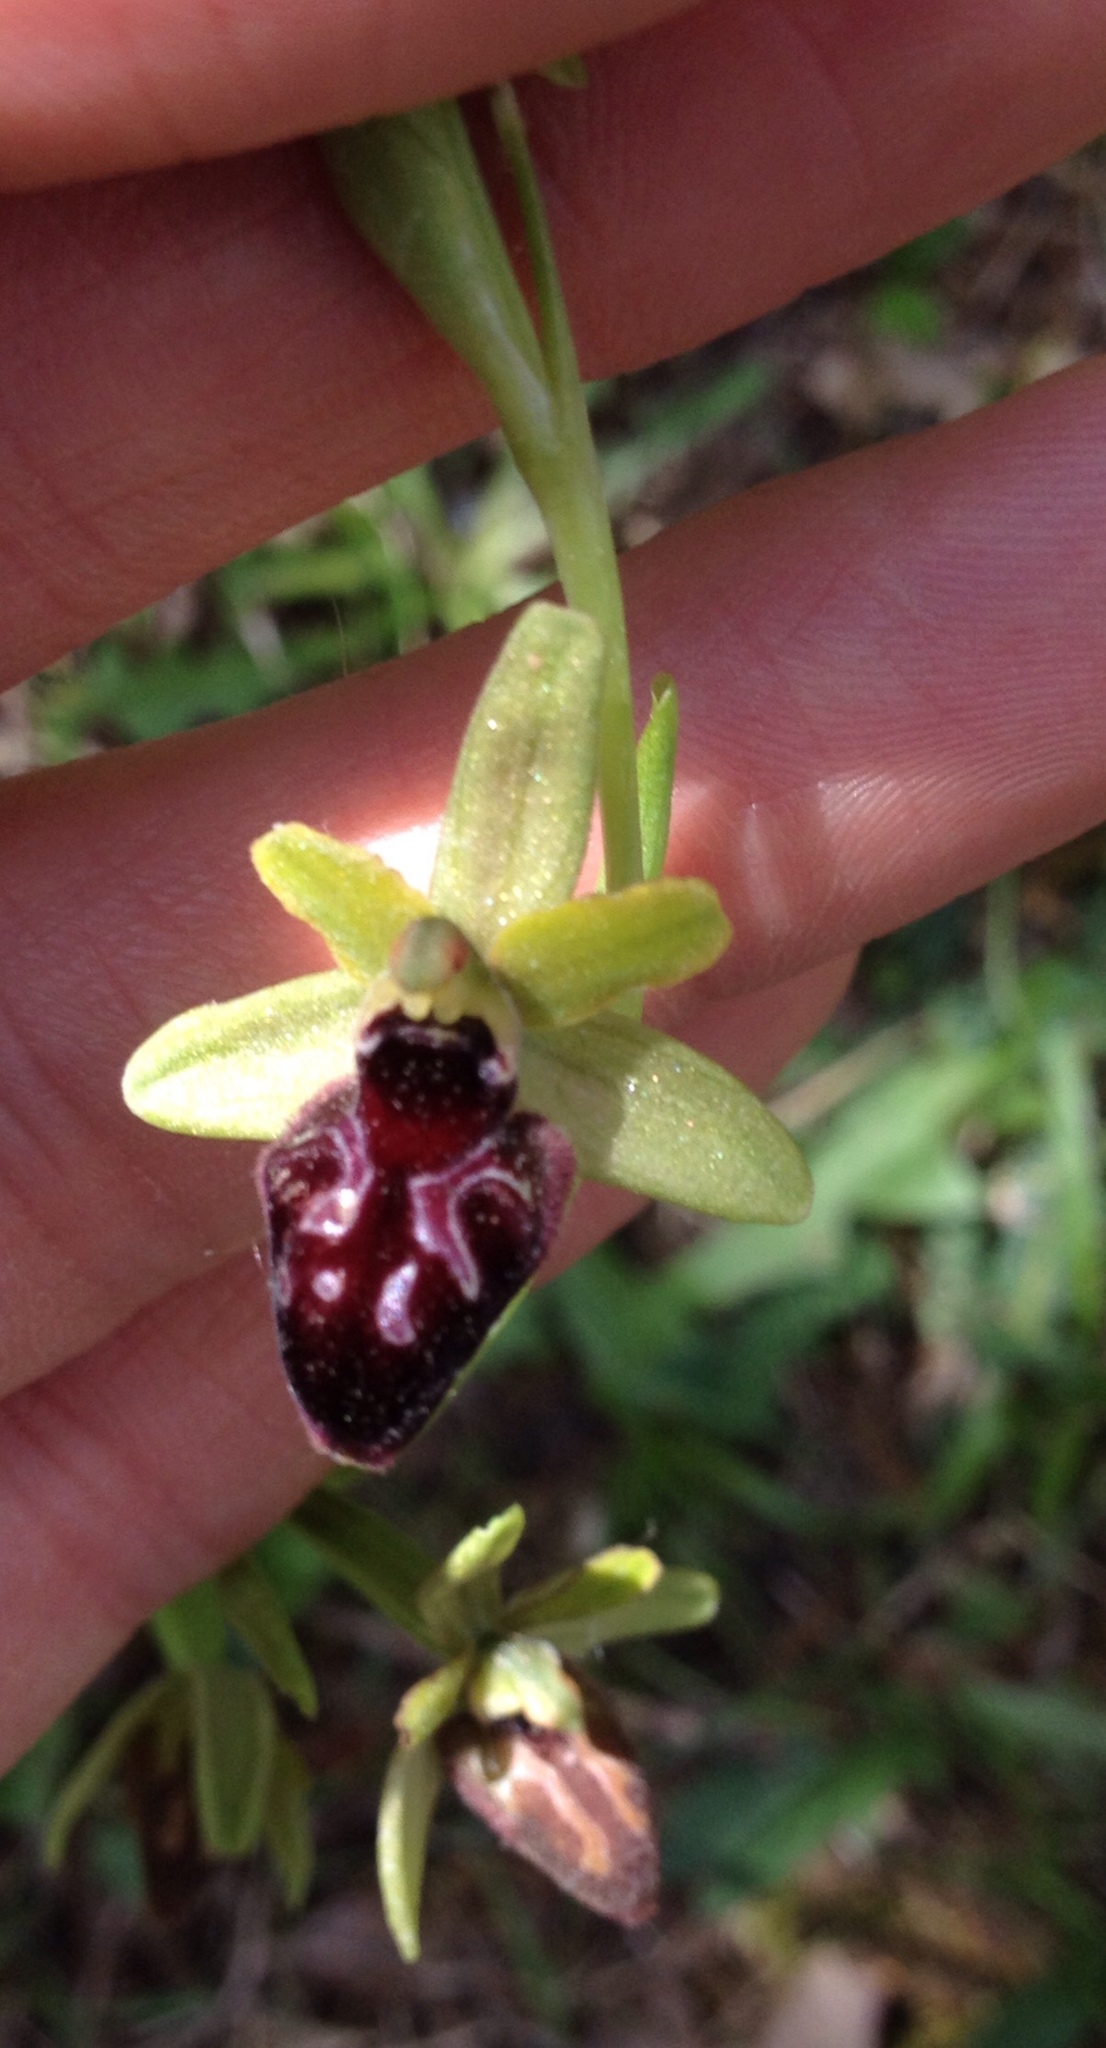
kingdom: Plantae
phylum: Tracheophyta
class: Liliopsida
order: Asparagales
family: Orchidaceae
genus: Ophrys
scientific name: Ophrys sphegodes
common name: Early spider-orchid
